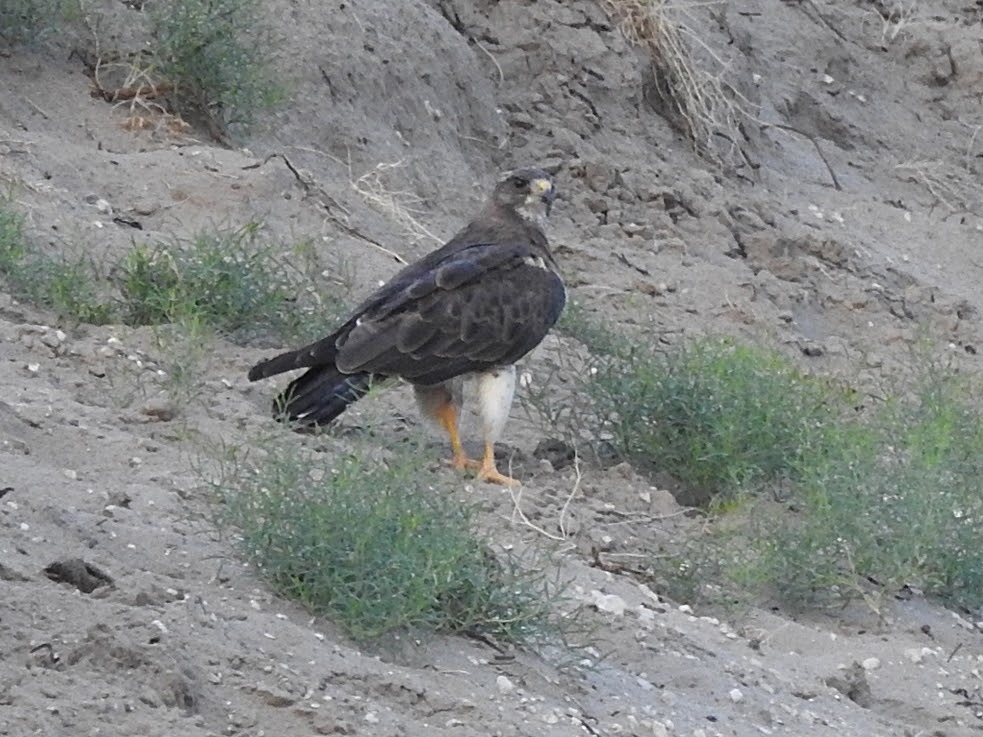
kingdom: Animalia
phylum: Chordata
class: Aves
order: Accipitriformes
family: Accipitridae
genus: Buteo
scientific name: Buteo swainsoni
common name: Swainson's hawk
